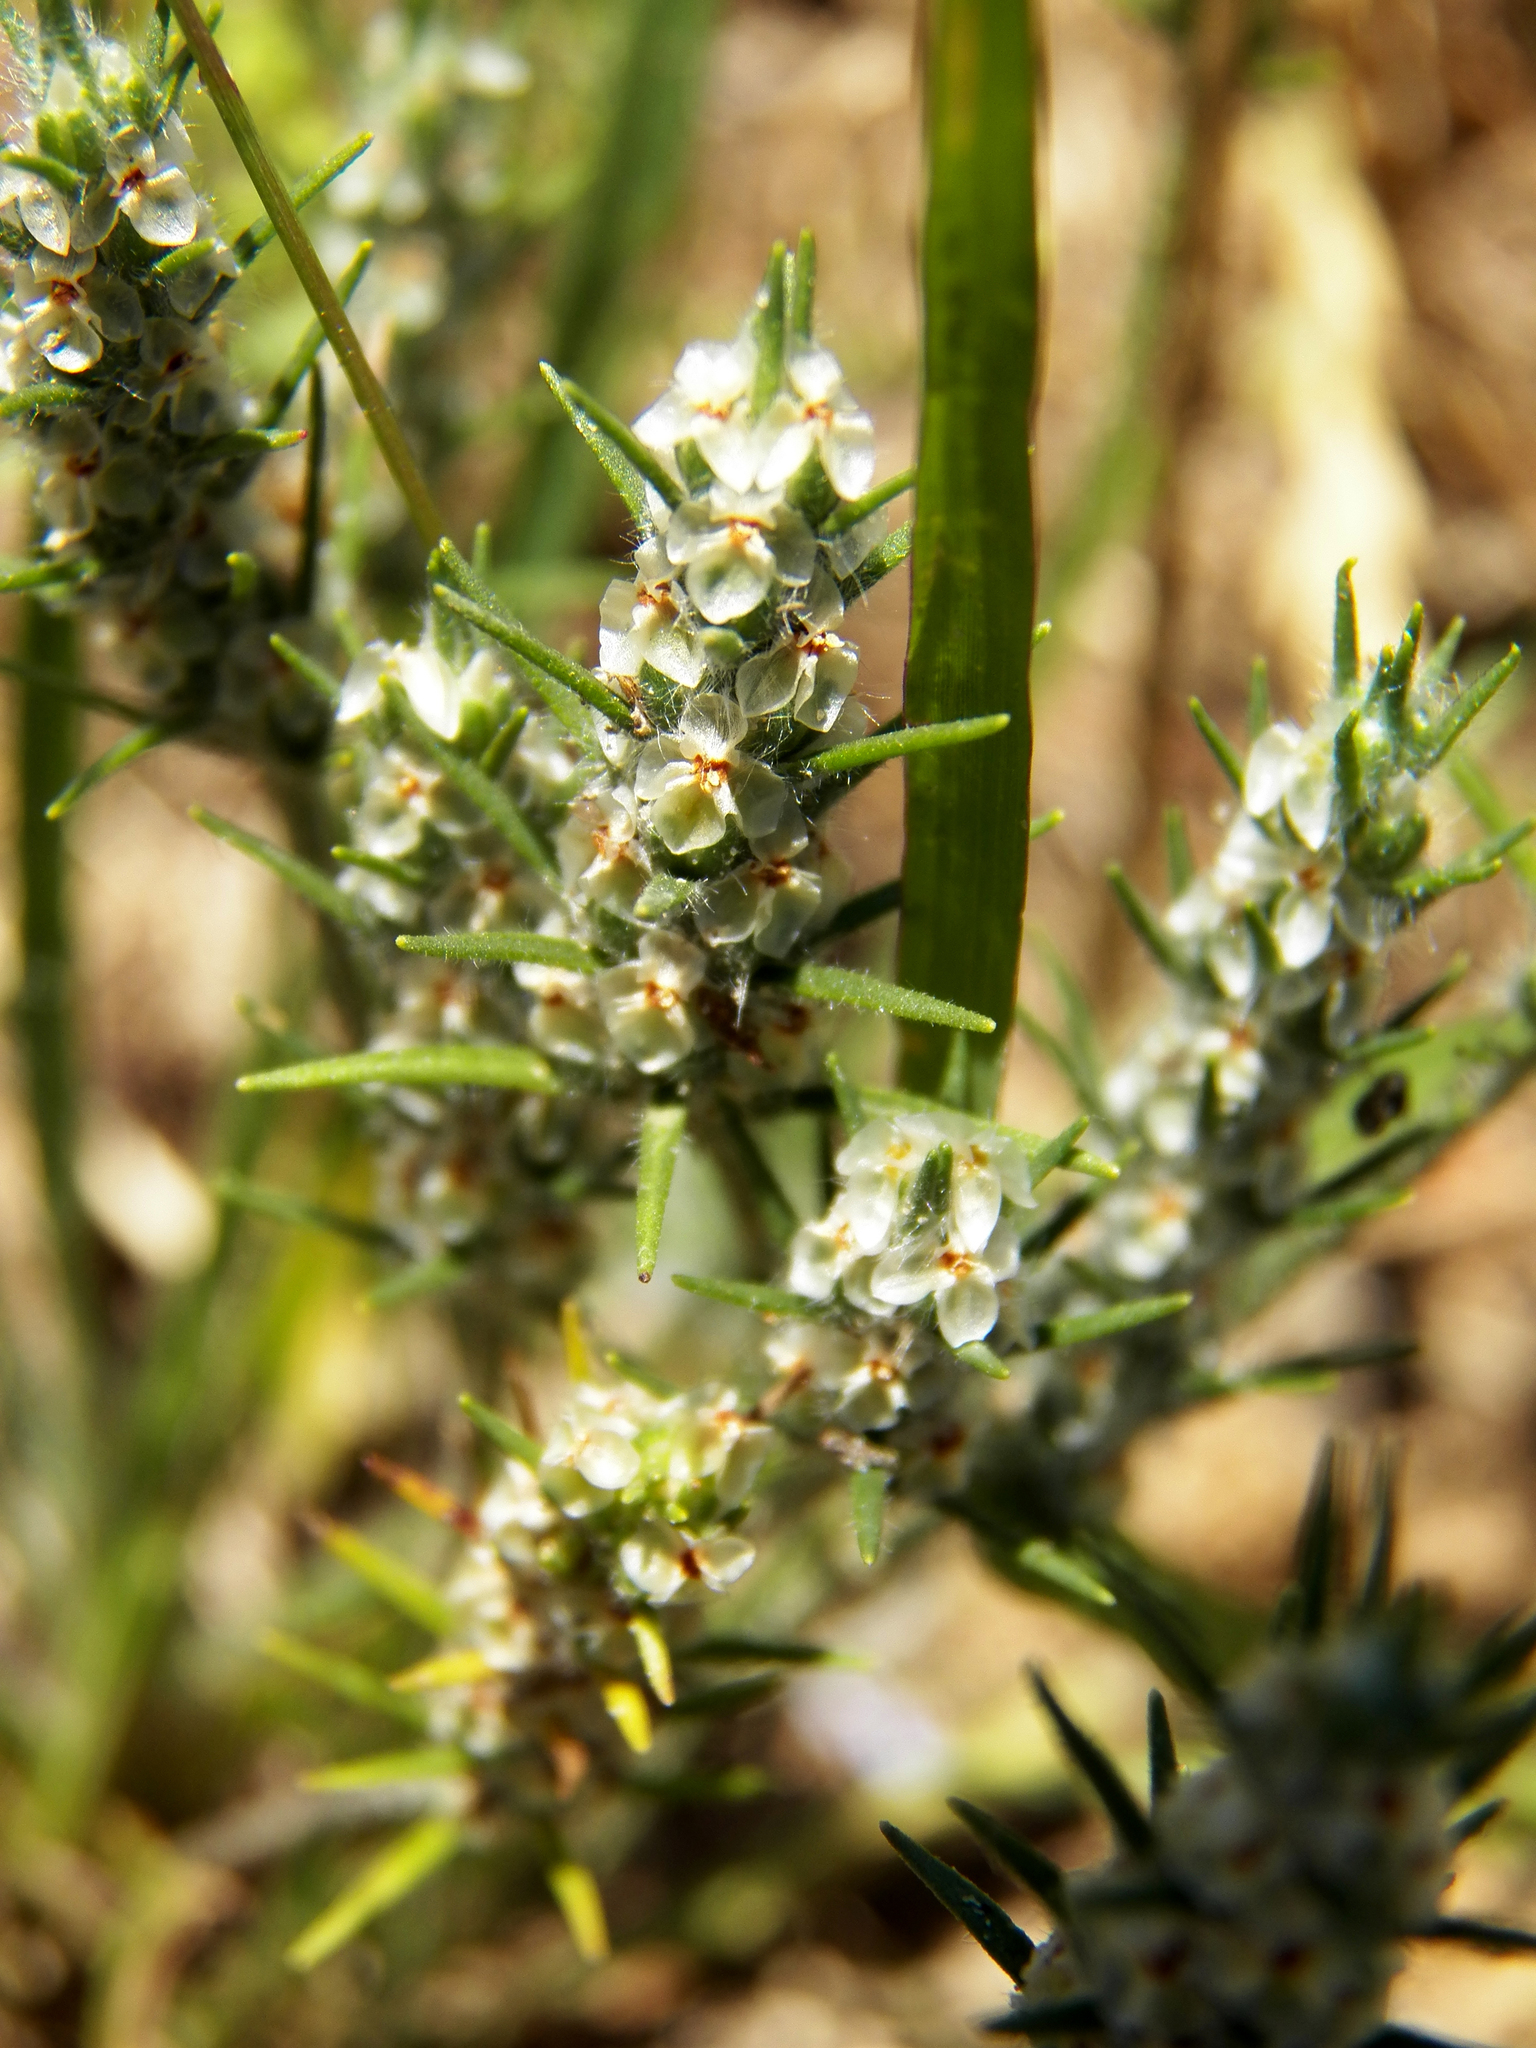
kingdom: Plantae
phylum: Tracheophyta
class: Magnoliopsida
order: Lamiales
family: Plantaginaceae
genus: Plantago
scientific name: Plantago aristata
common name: Bracted plantain
